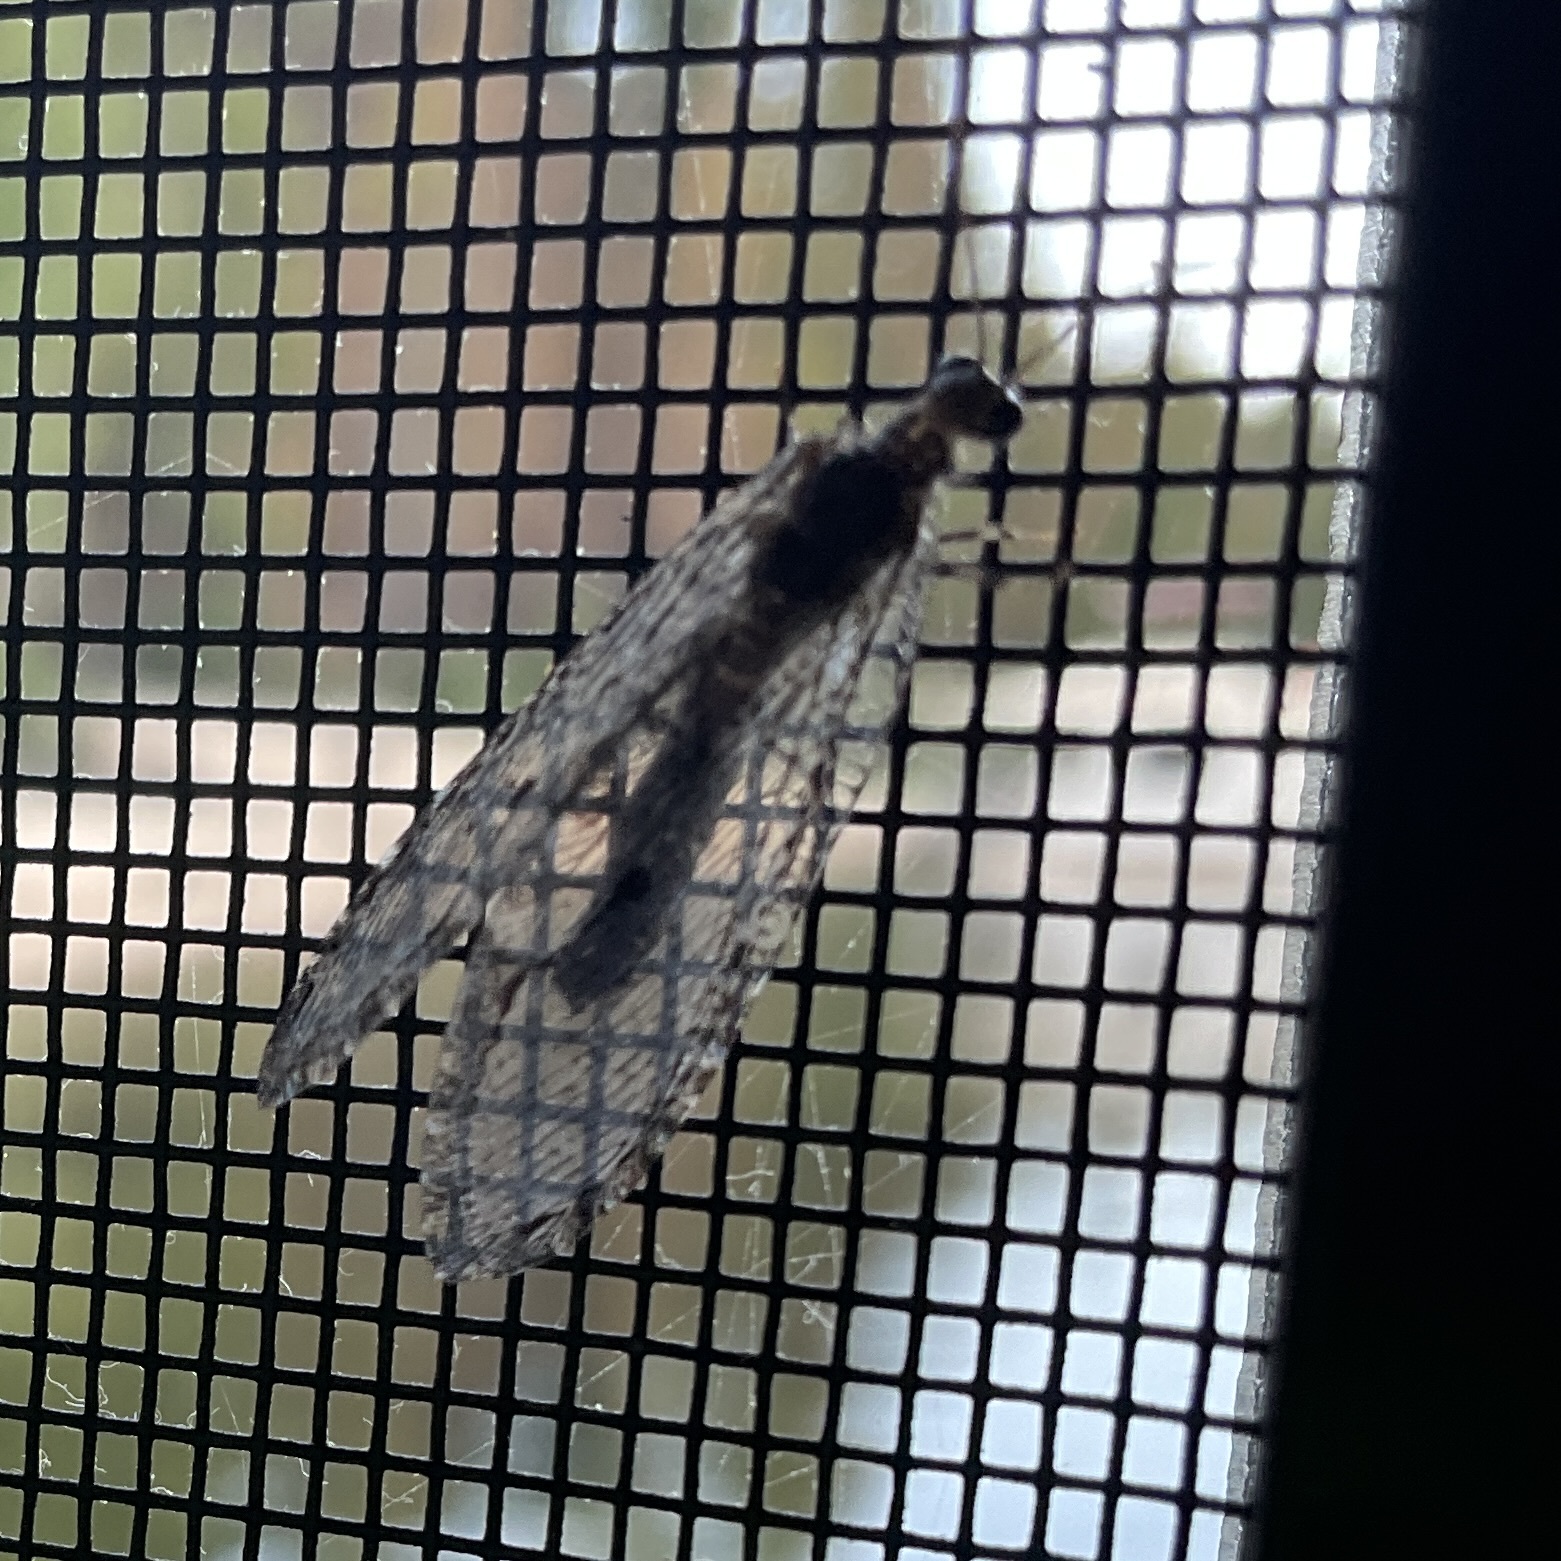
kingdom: Animalia
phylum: Arthropoda
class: Insecta
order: Neuroptera
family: Ithonidae
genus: Polystoechotes
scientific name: Polystoechotes punctata
